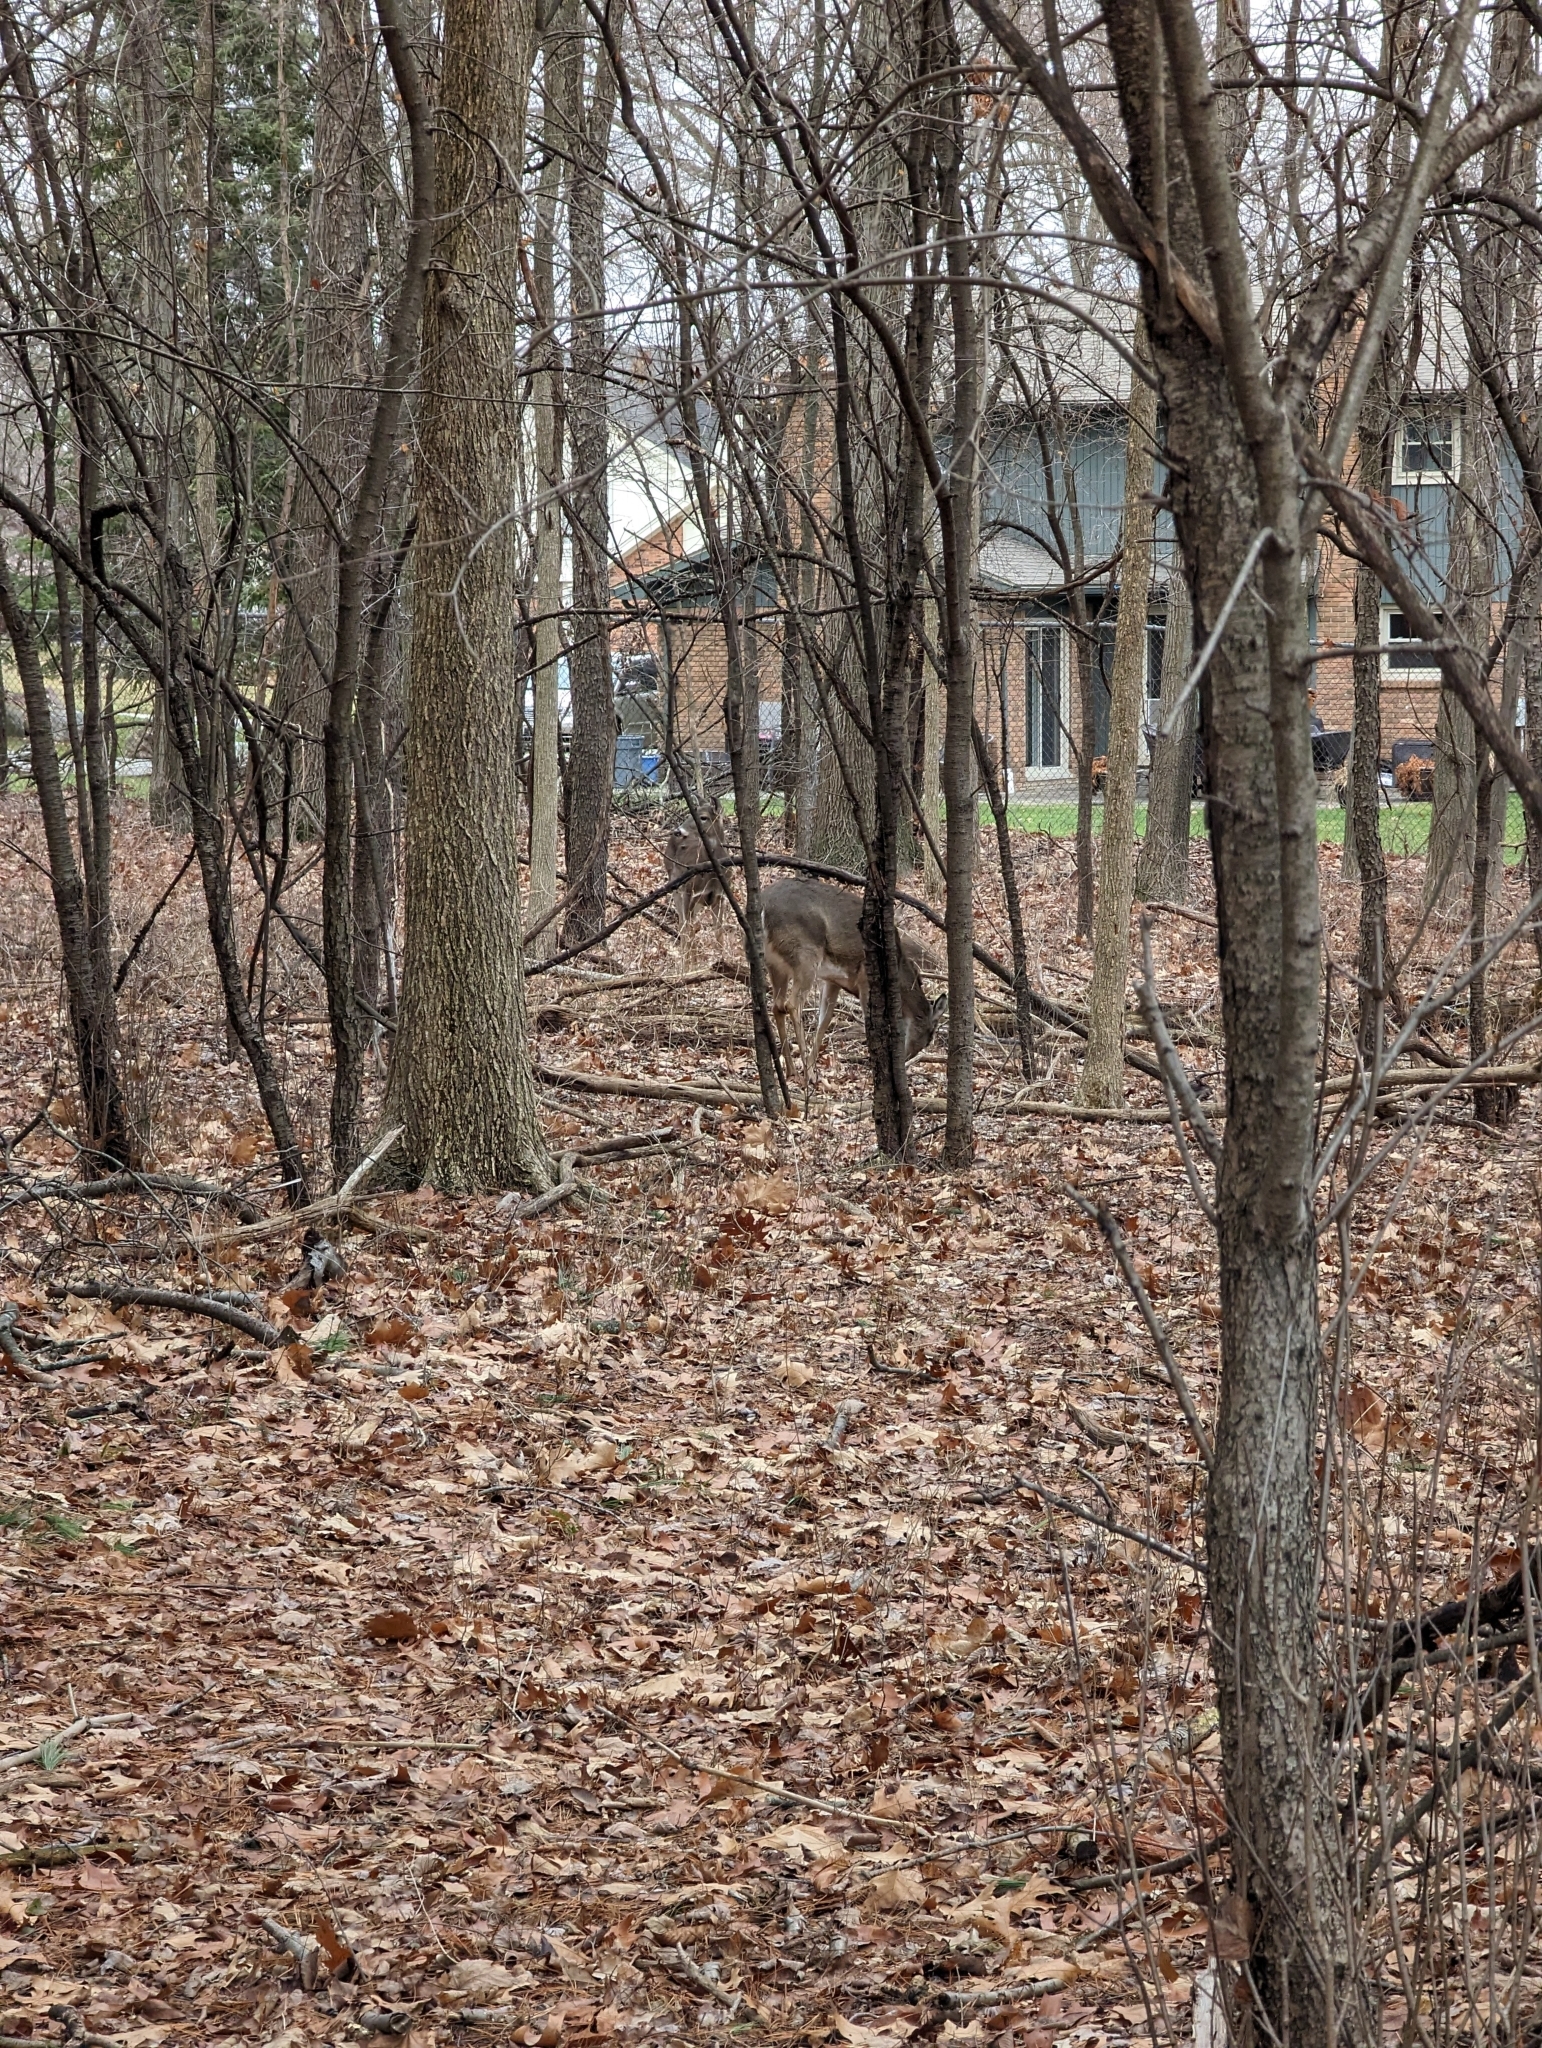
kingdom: Animalia
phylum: Chordata
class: Mammalia
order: Artiodactyla
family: Cervidae
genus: Odocoileus
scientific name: Odocoileus virginianus
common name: White-tailed deer
